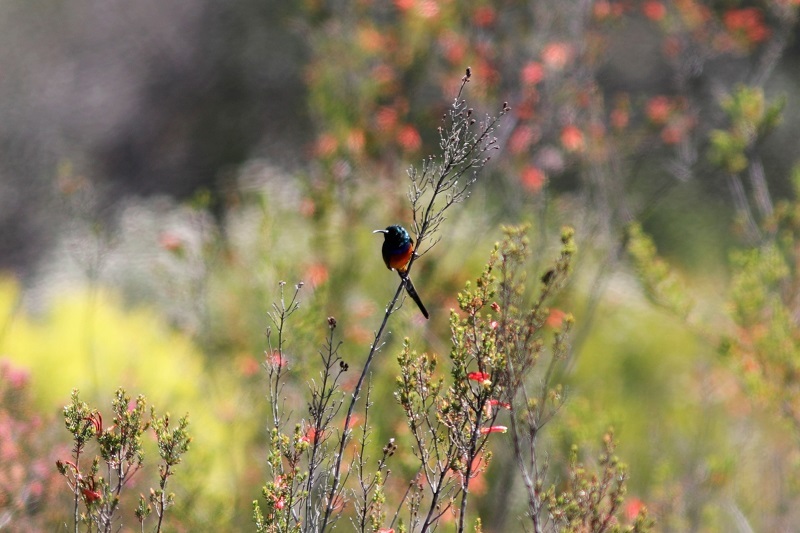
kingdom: Animalia
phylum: Chordata
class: Aves
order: Passeriformes
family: Nectariniidae
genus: Anthobaphes
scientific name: Anthobaphes violacea
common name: Orange-breasted sunbird
